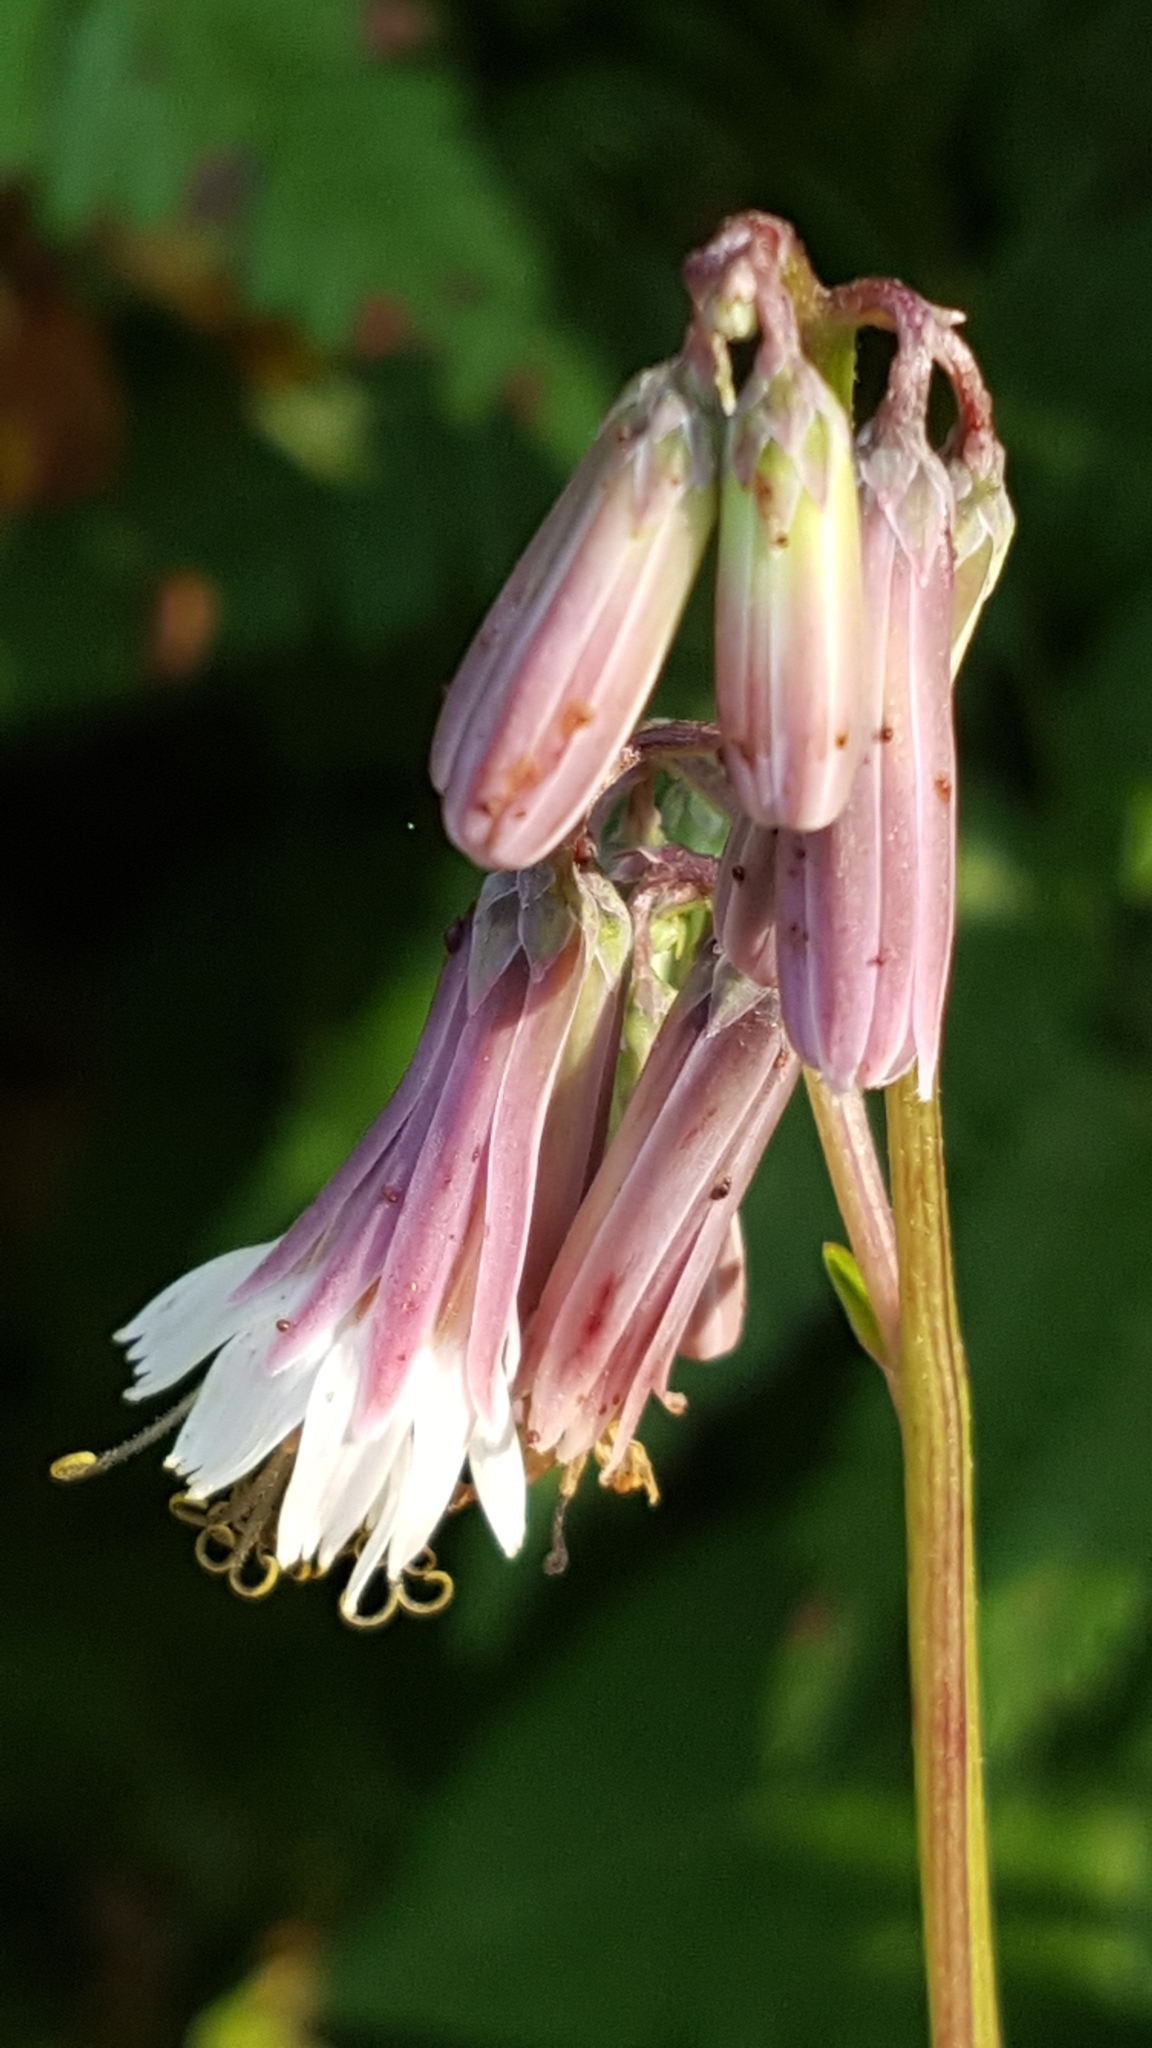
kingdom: Plantae
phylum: Tracheophyta
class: Magnoliopsida
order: Asterales
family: Asteraceae
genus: Nabalus
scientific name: Nabalus albus
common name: White rattlesnakeroot
